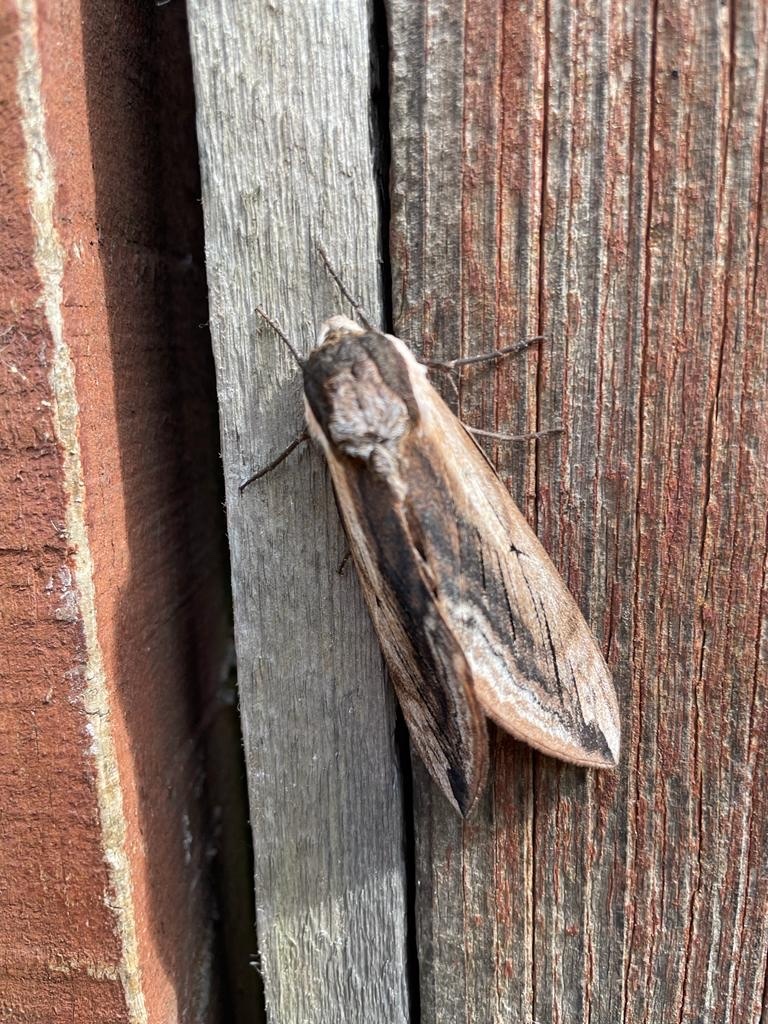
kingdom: Animalia
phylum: Arthropoda
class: Insecta
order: Lepidoptera
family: Sphingidae
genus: Sphinx
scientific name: Sphinx ligustri
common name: Privet hawk-moth
